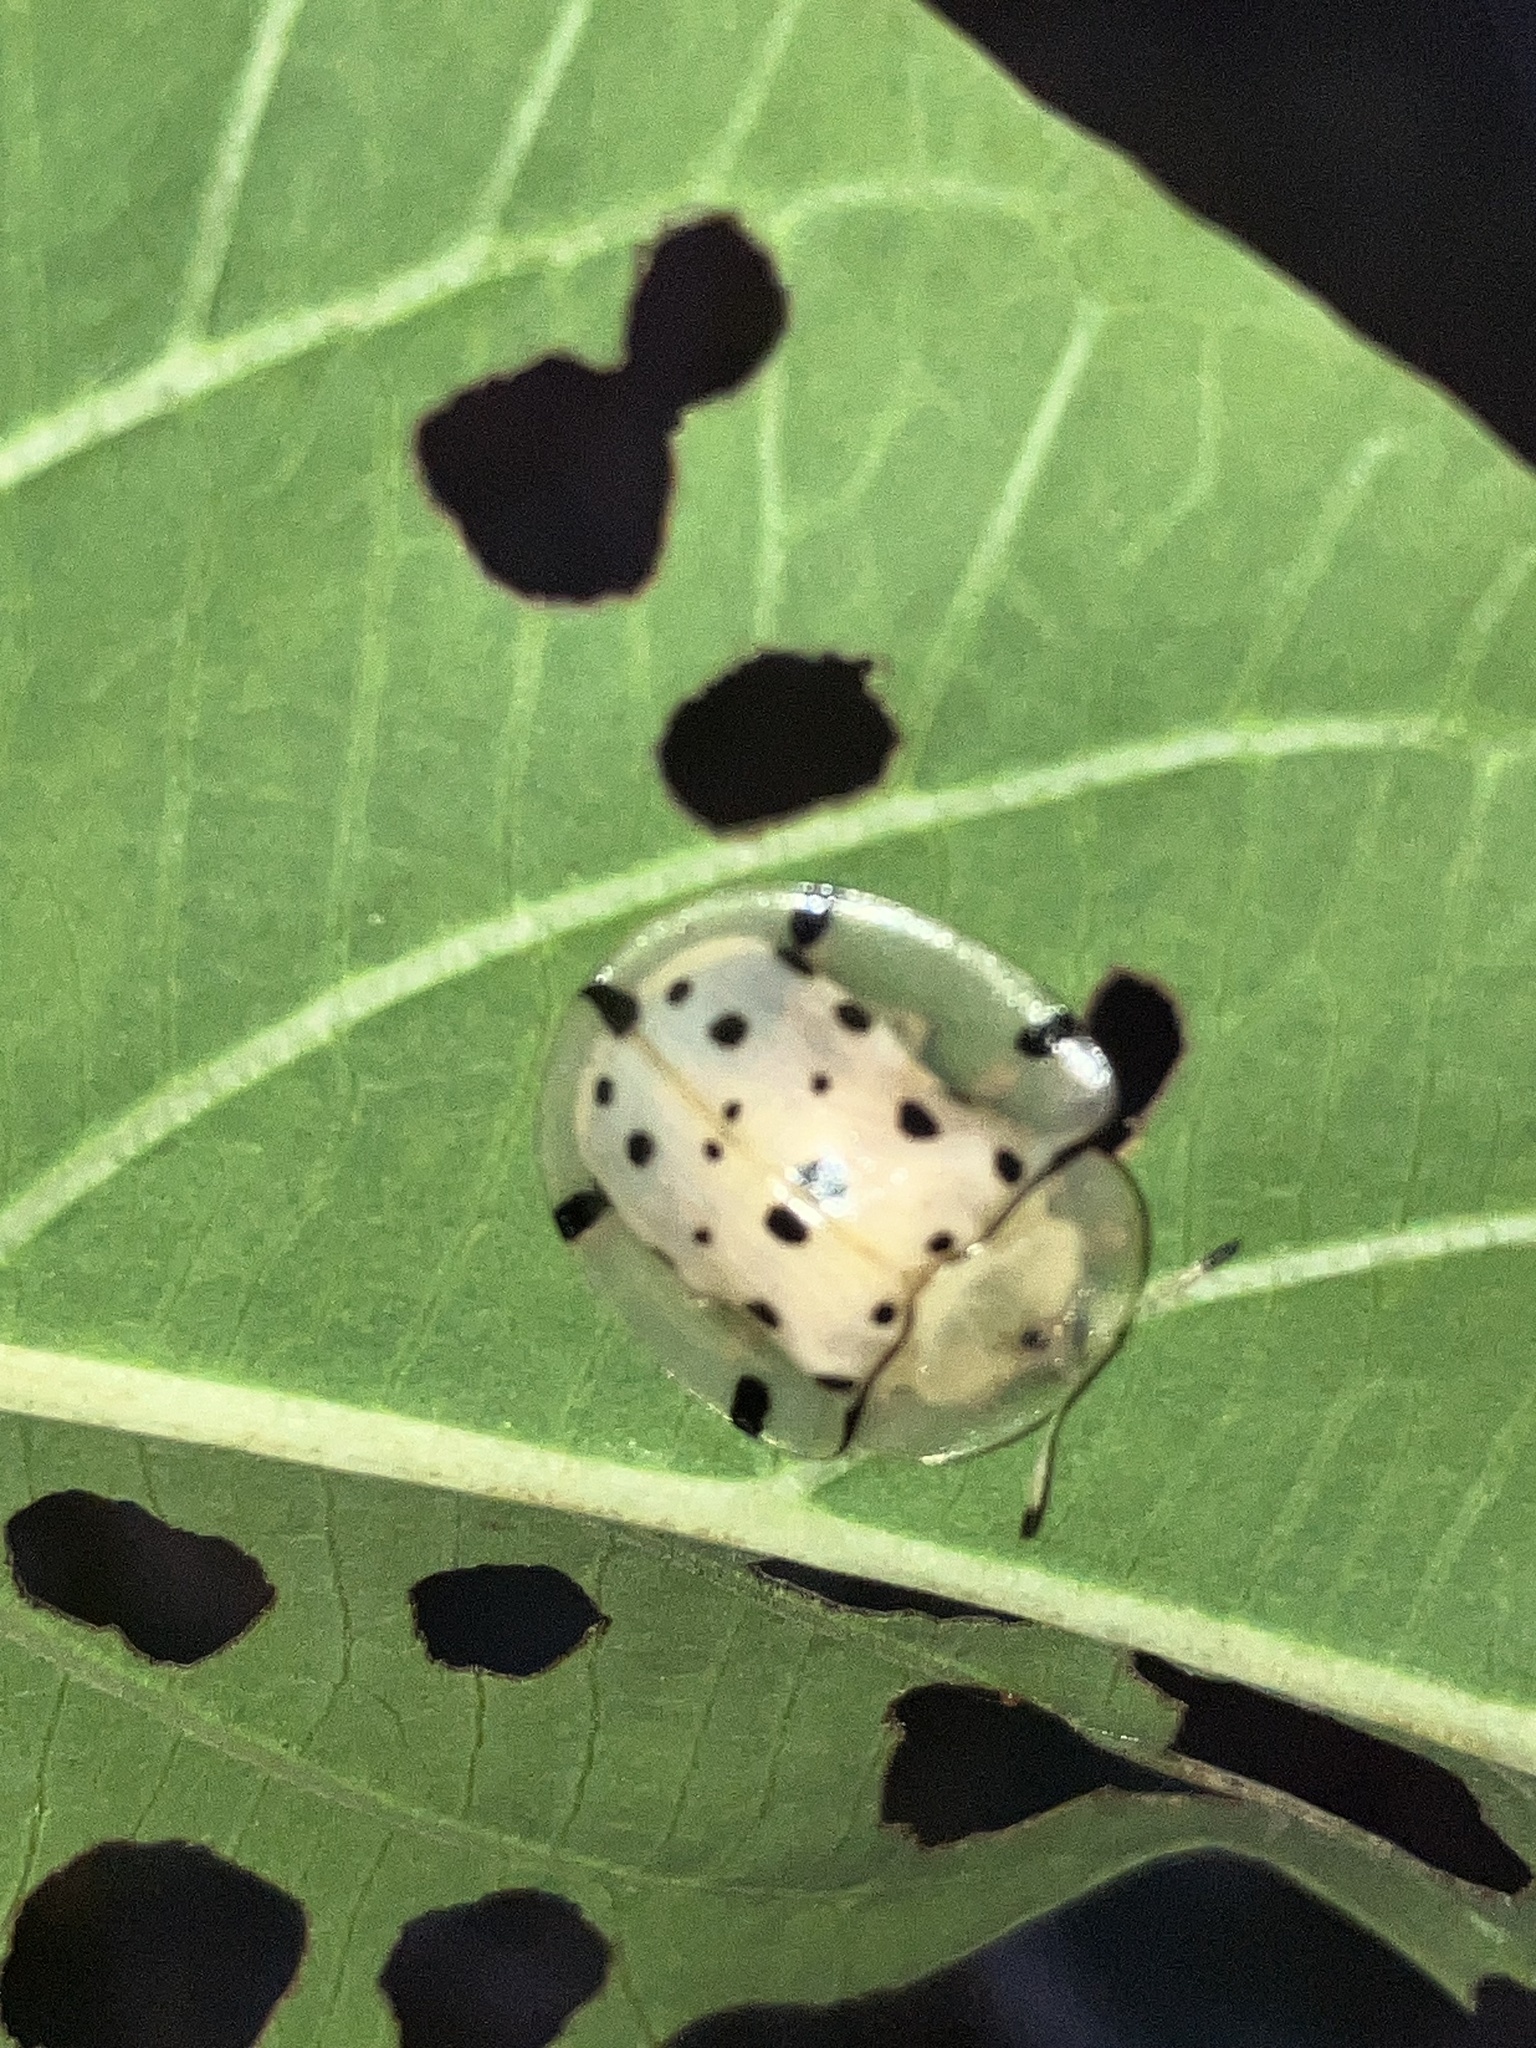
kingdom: Animalia
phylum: Arthropoda
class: Insecta
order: Coleoptera
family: Chrysomelidae
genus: Aspidimorpha
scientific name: Aspidimorpha miliaris
